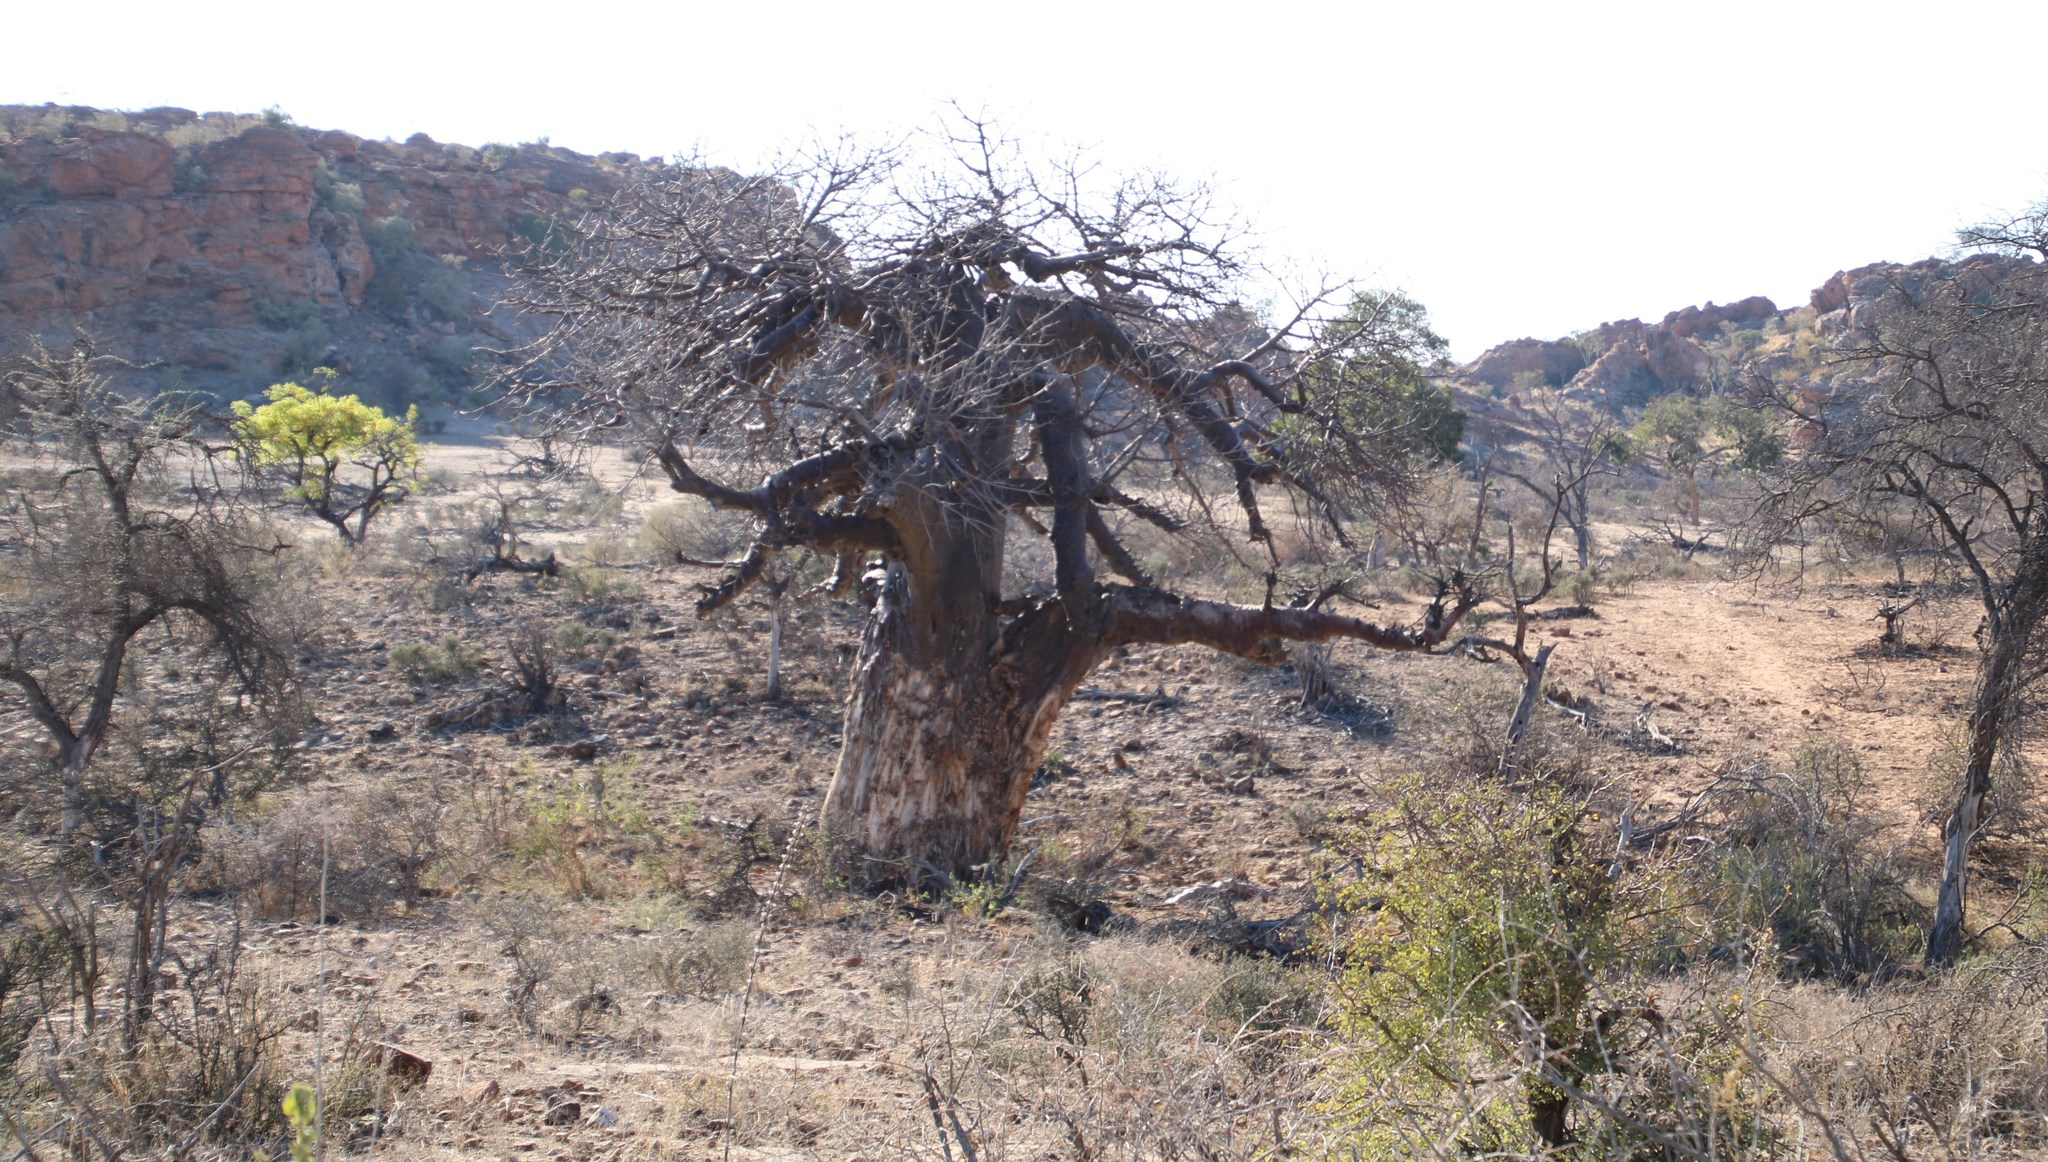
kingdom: Plantae
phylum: Tracheophyta
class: Magnoliopsida
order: Malvales
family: Malvaceae
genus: Adansonia
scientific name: Adansonia digitata
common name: Dead-rat-tree
